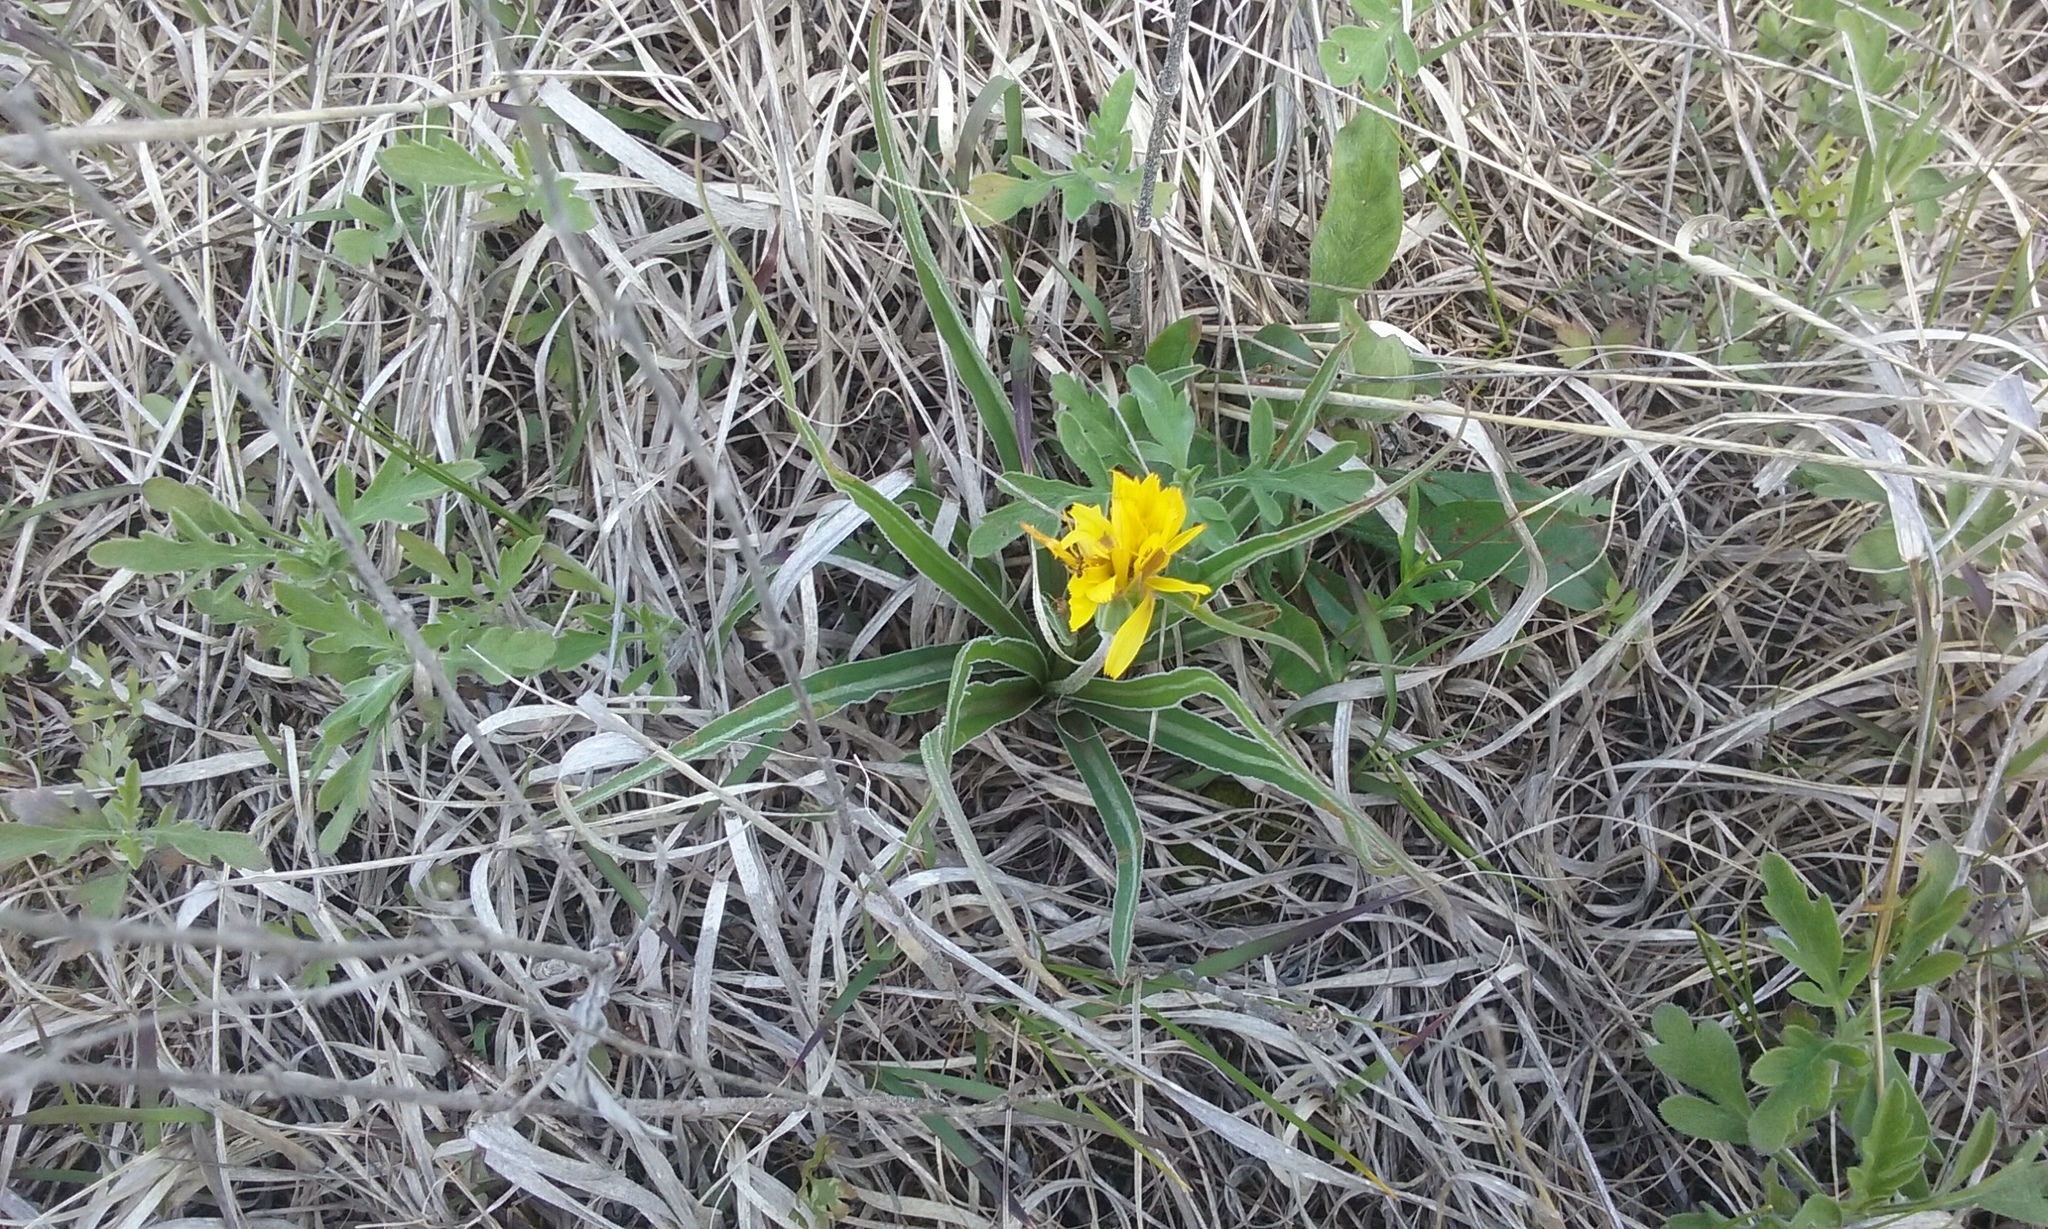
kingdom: Plantae
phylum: Tracheophyta
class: Magnoliopsida
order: Asterales
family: Asteraceae
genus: Microseris
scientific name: Microseris cuspidata
